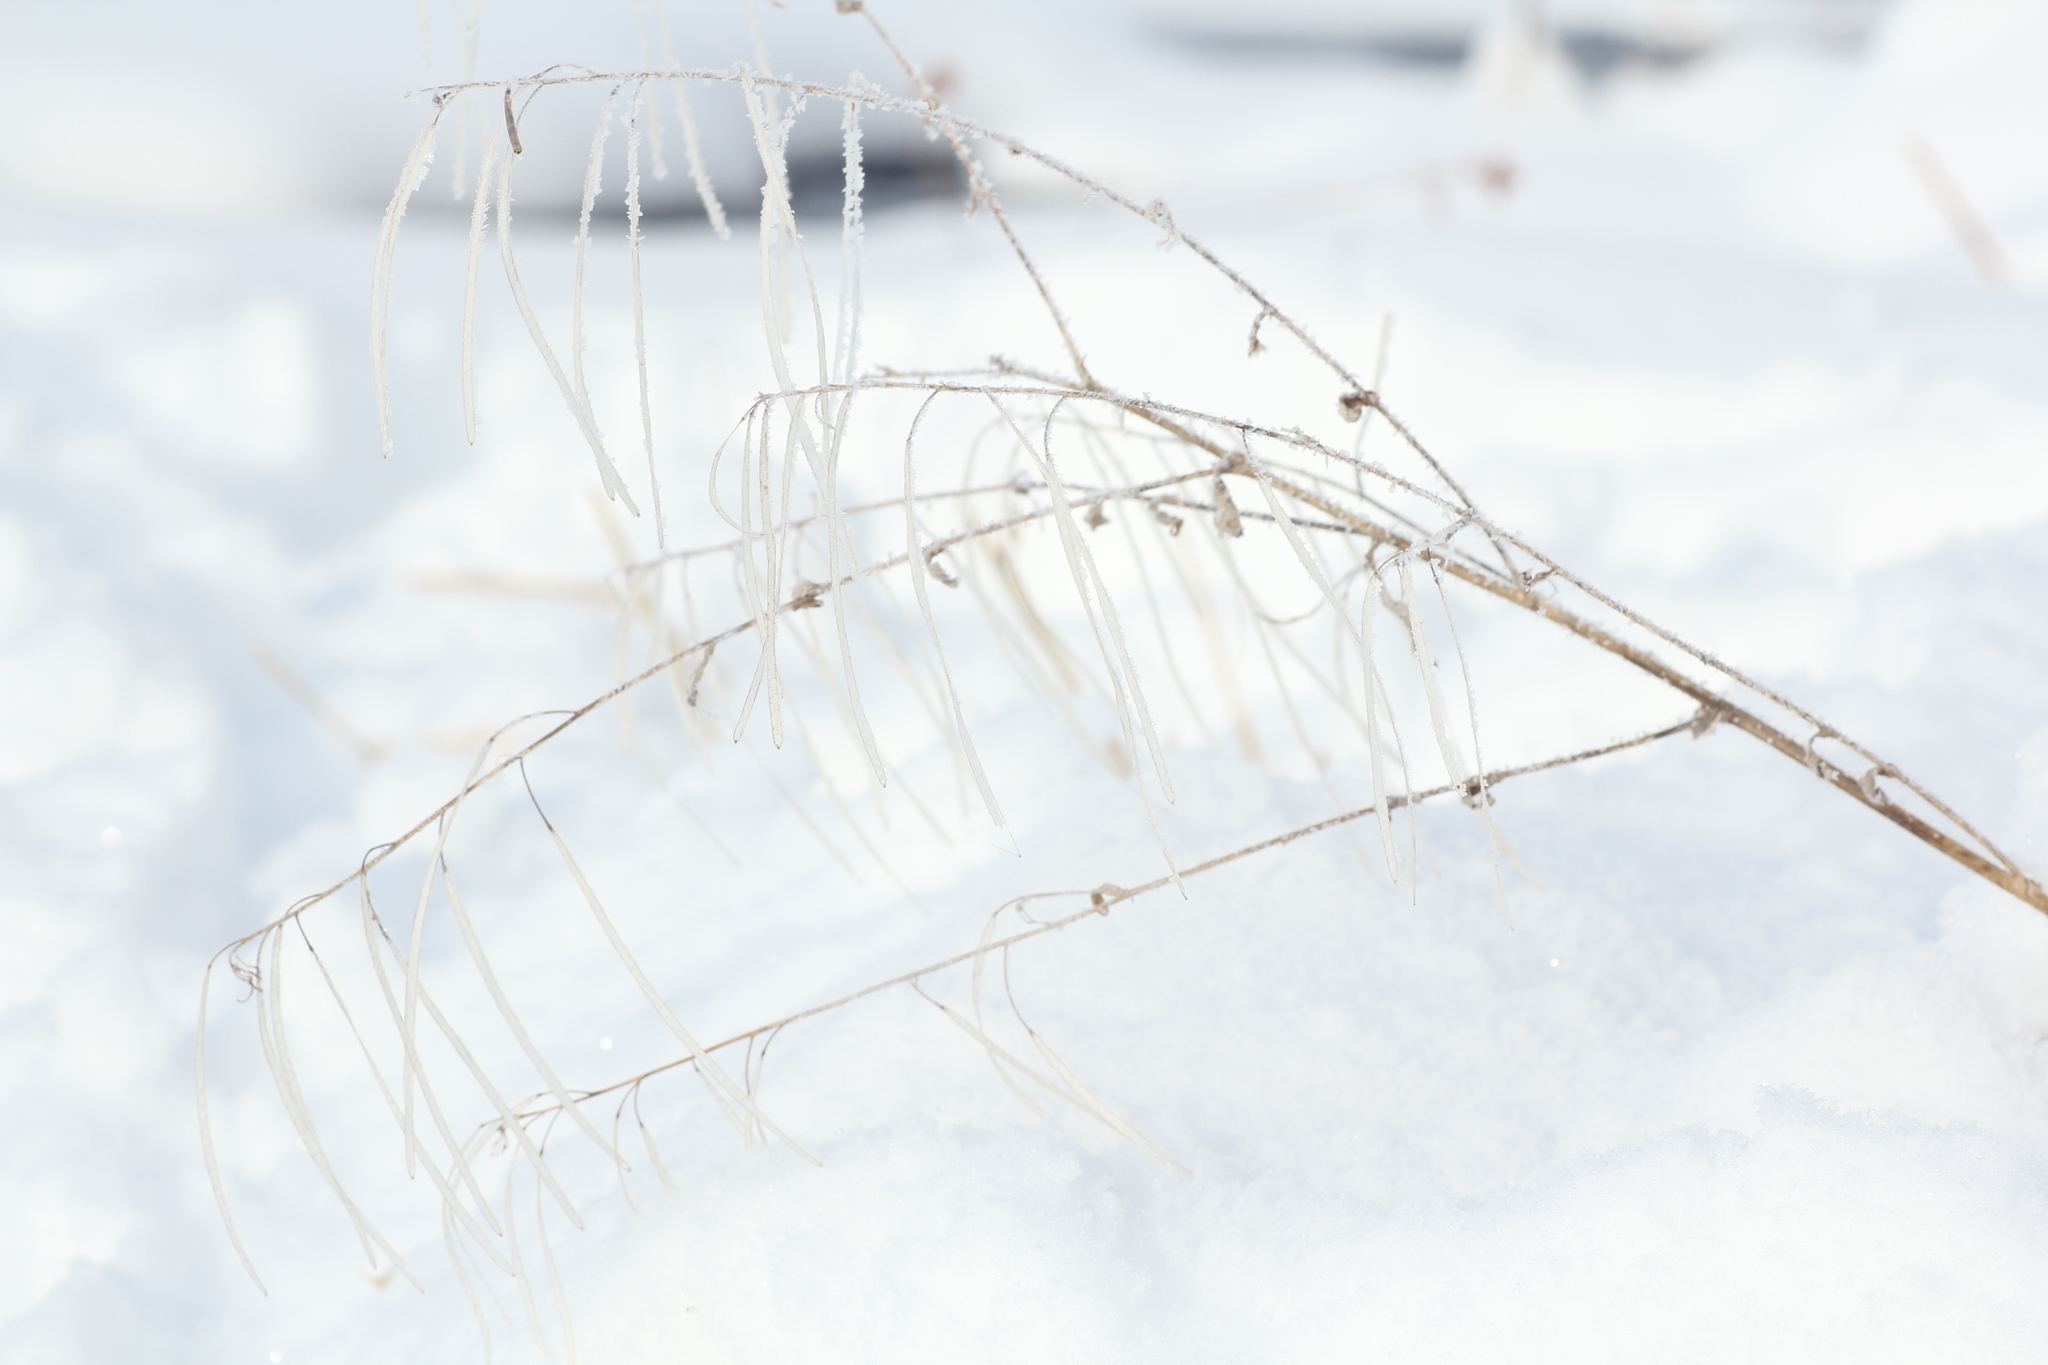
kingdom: Plantae
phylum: Tracheophyta
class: Magnoliopsida
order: Brassicales
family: Brassicaceae
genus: Catolobus
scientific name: Catolobus pendulus
